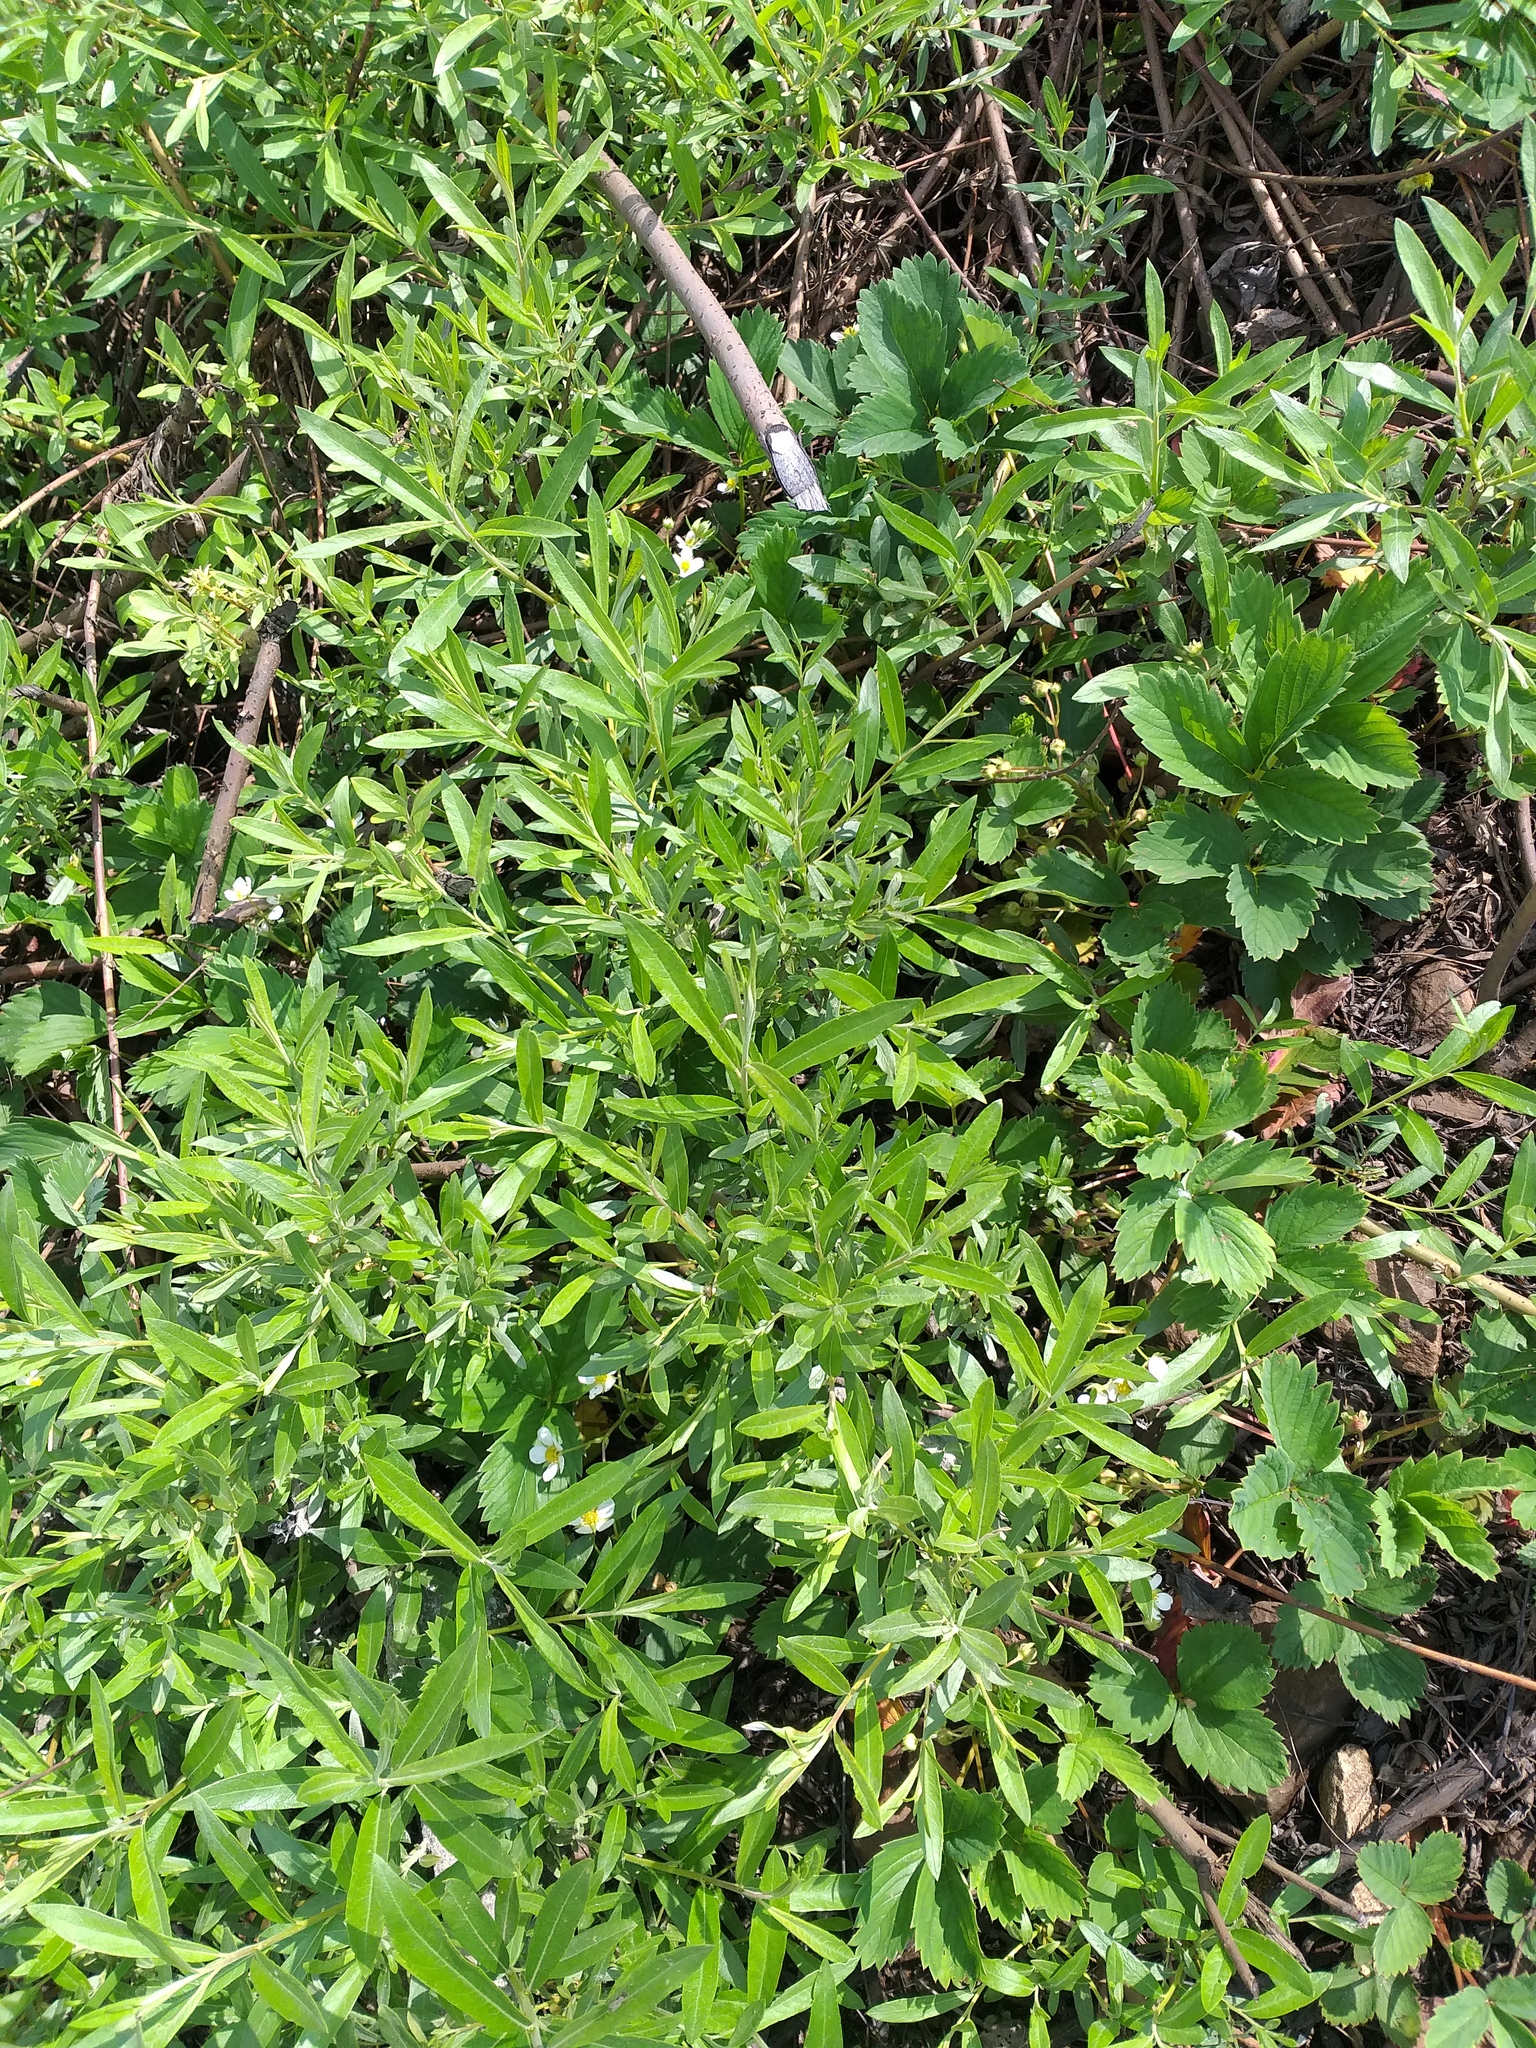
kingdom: Plantae
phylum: Tracheophyta
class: Magnoliopsida
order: Malpighiales
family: Salicaceae
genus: Salix
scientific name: Salix viminalis
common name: Osier
